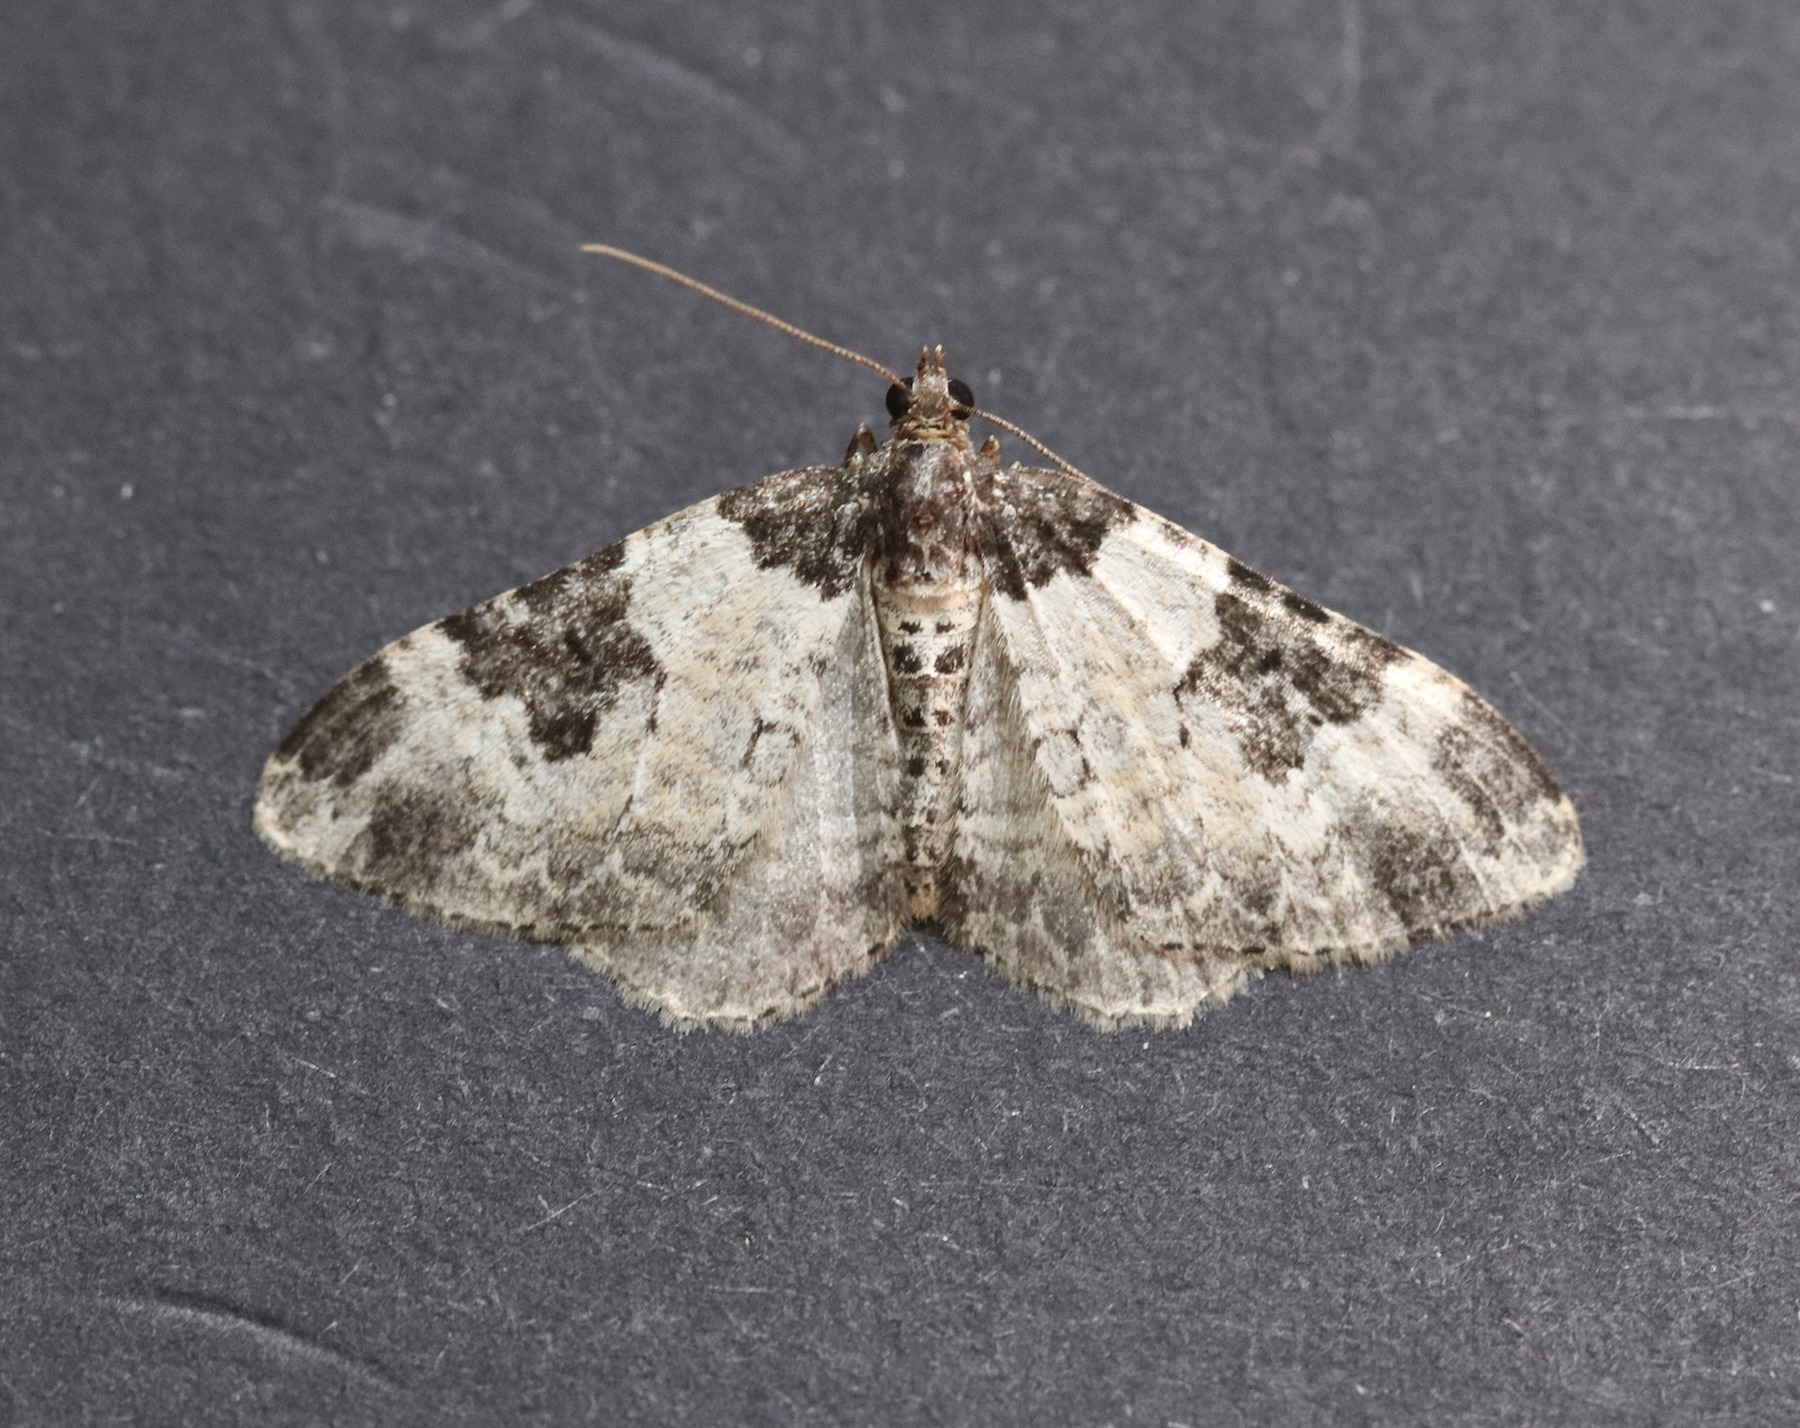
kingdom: Animalia
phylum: Arthropoda
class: Insecta
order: Lepidoptera
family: Geometridae
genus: Xanthorhoe
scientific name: Xanthorhoe fluctuata
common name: Garden carpet
